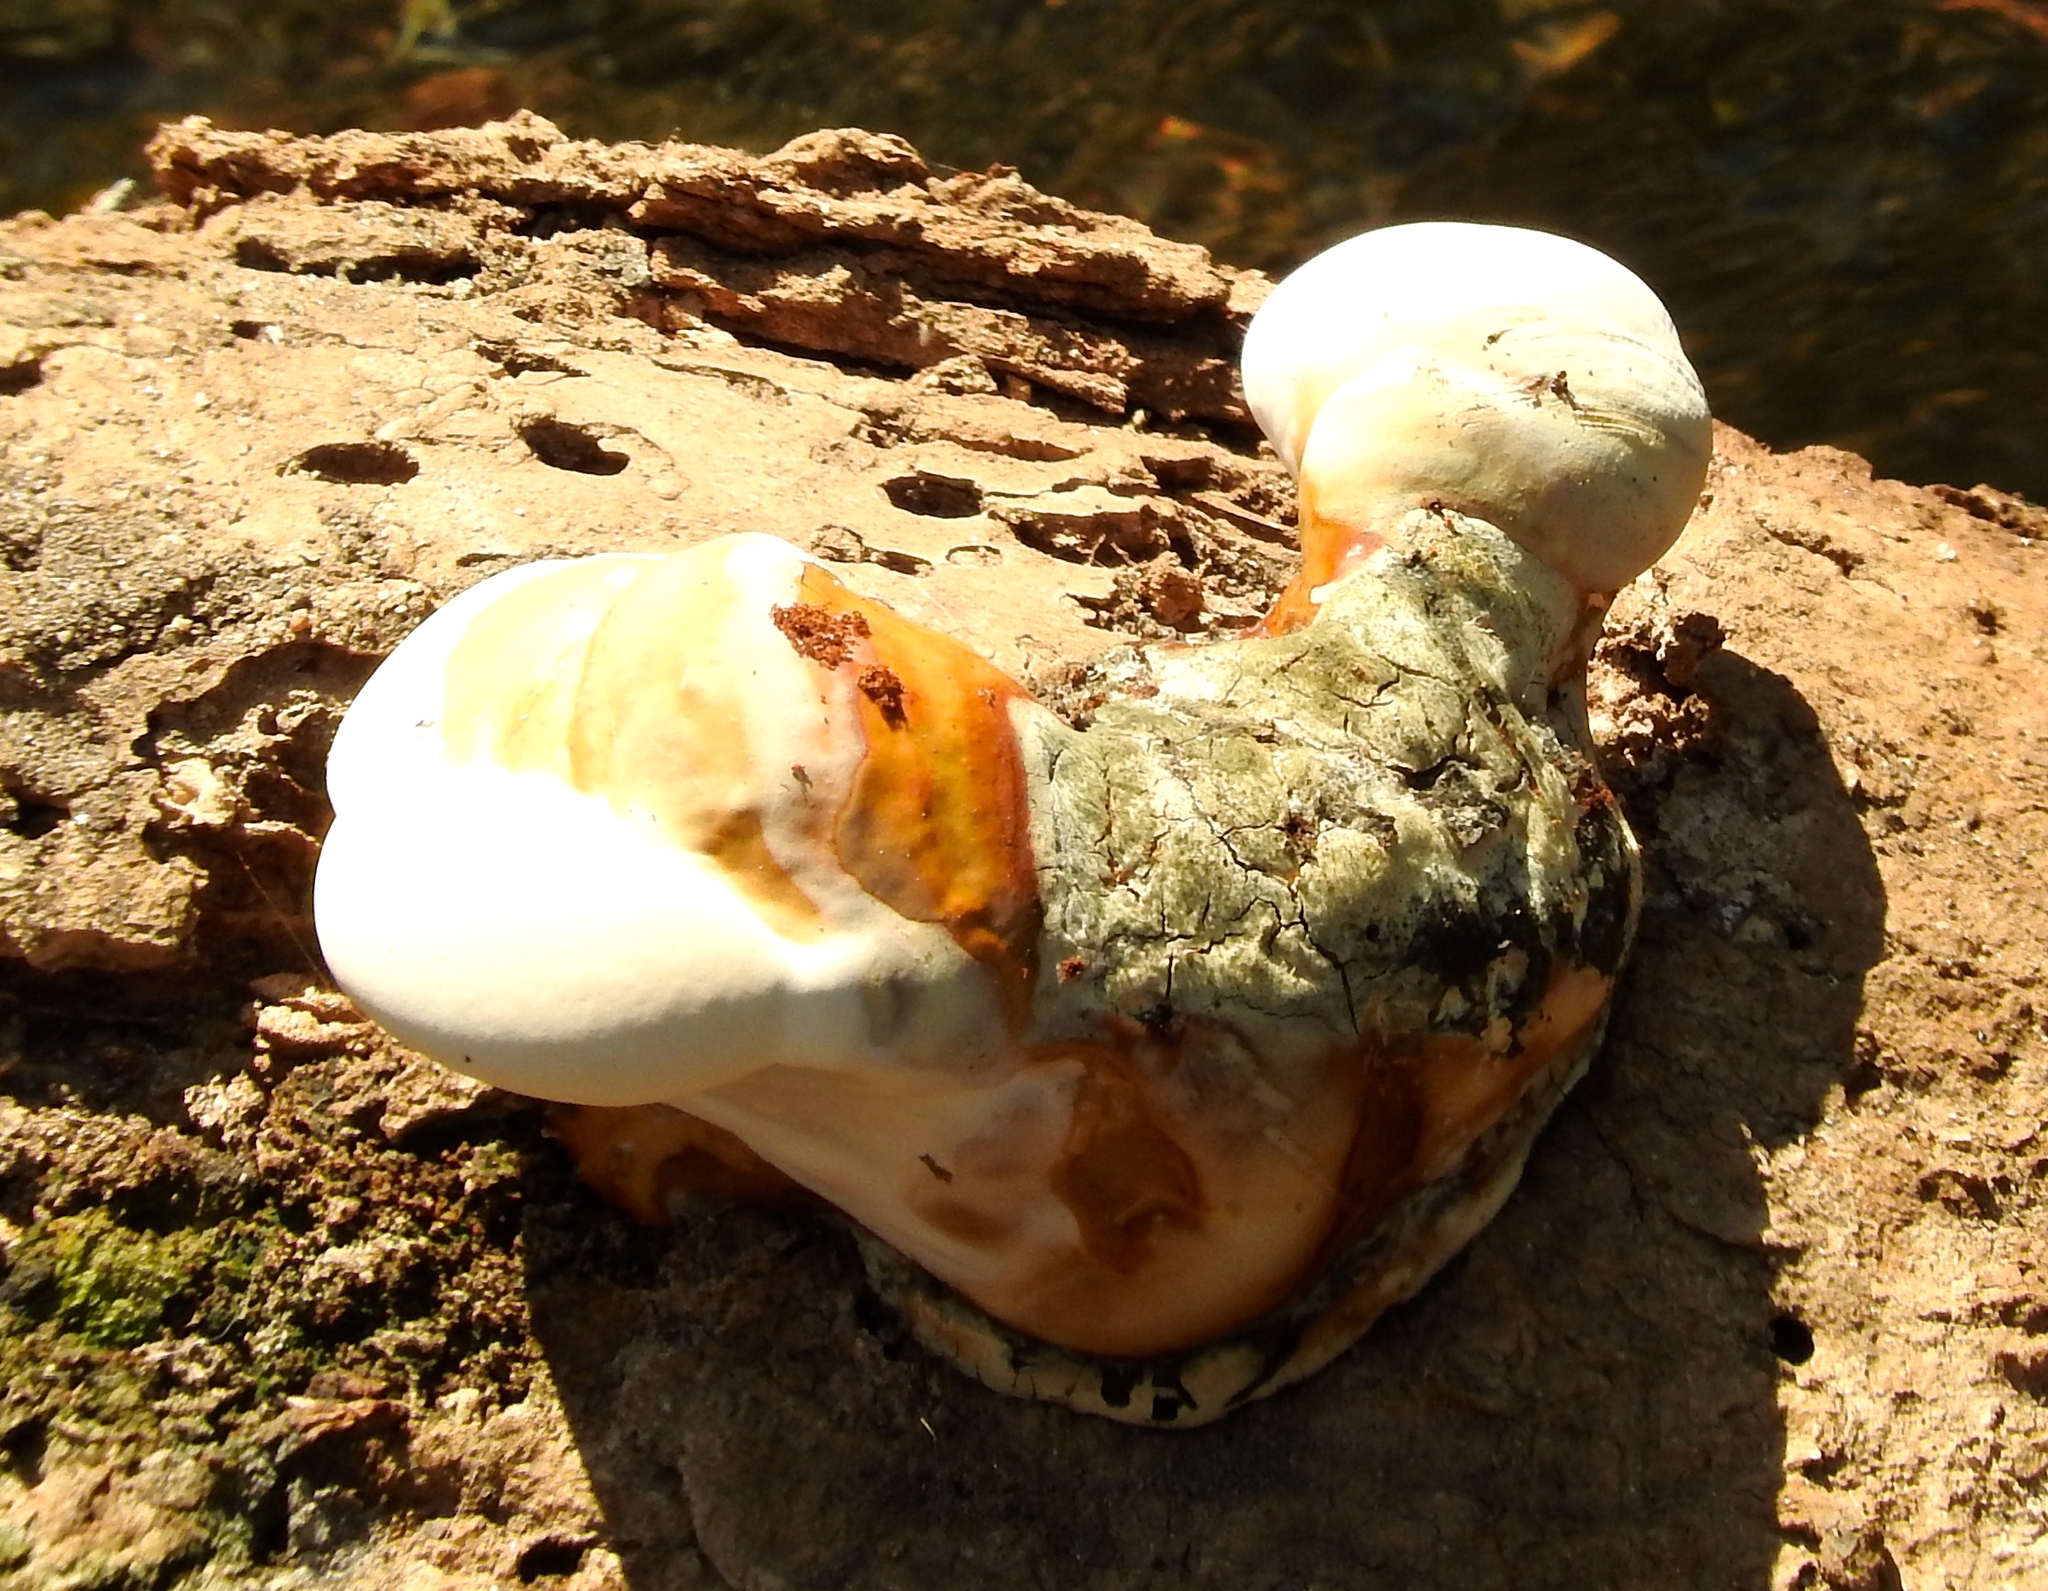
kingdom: Fungi
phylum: Basidiomycota
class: Agaricomycetes
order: Polyporales
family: Polyporaceae
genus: Ganoderma
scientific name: Ganoderma
